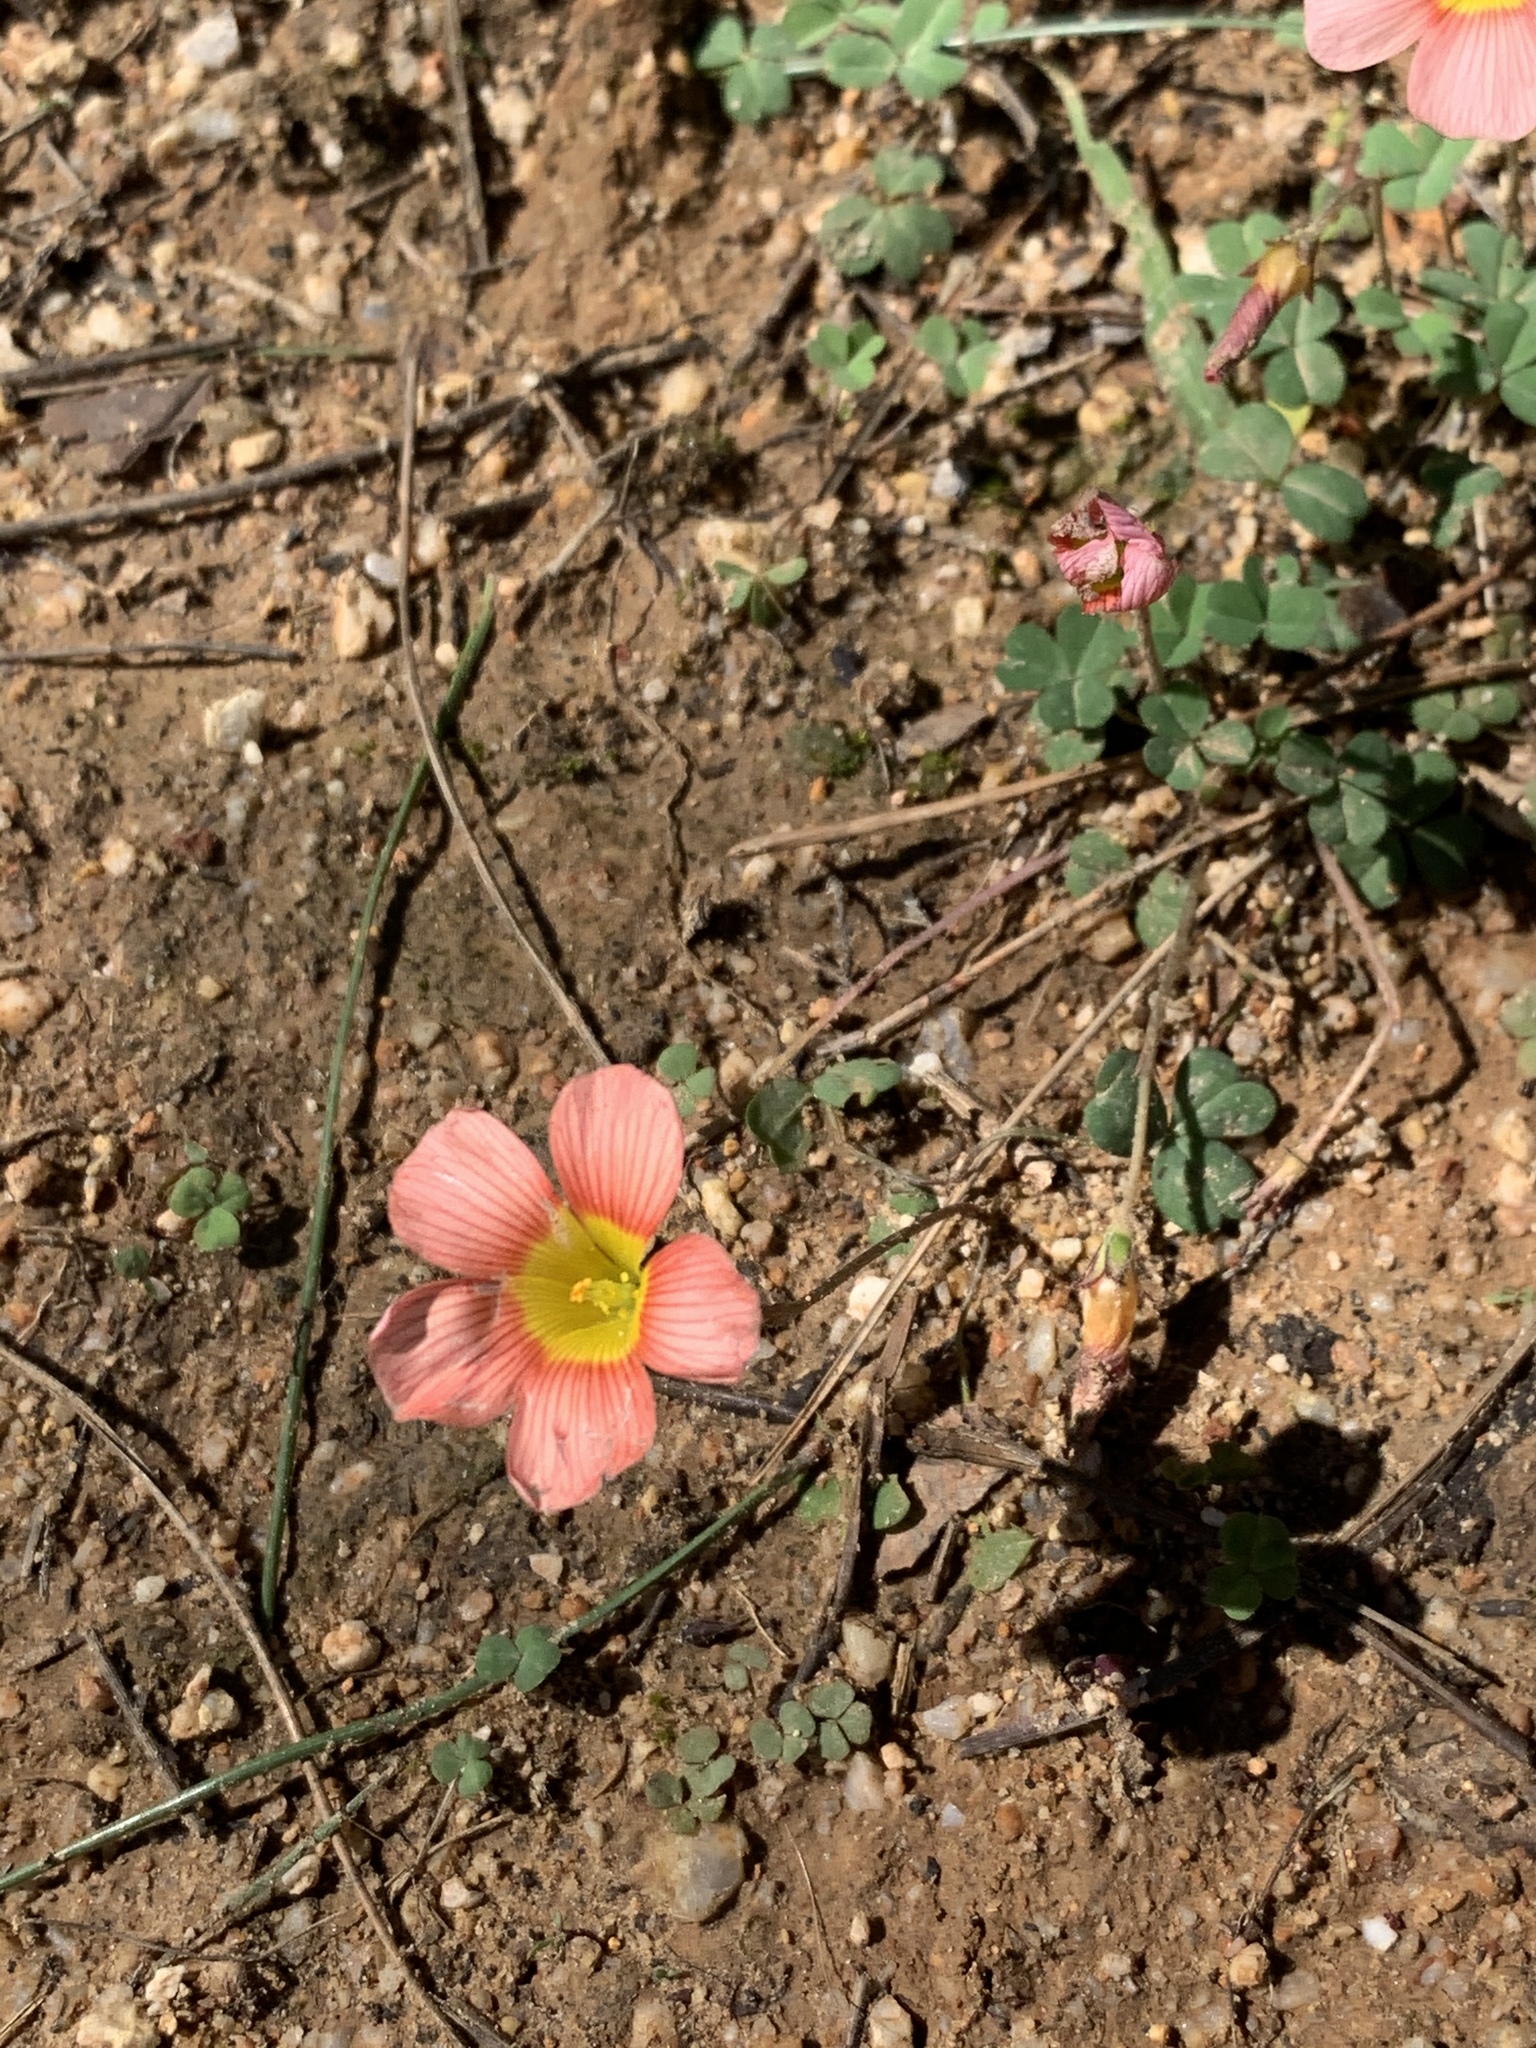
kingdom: Plantae
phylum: Tracheophyta
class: Magnoliopsida
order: Oxalidales
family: Oxalidaceae
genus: Oxalis
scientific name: Oxalis obtusa
